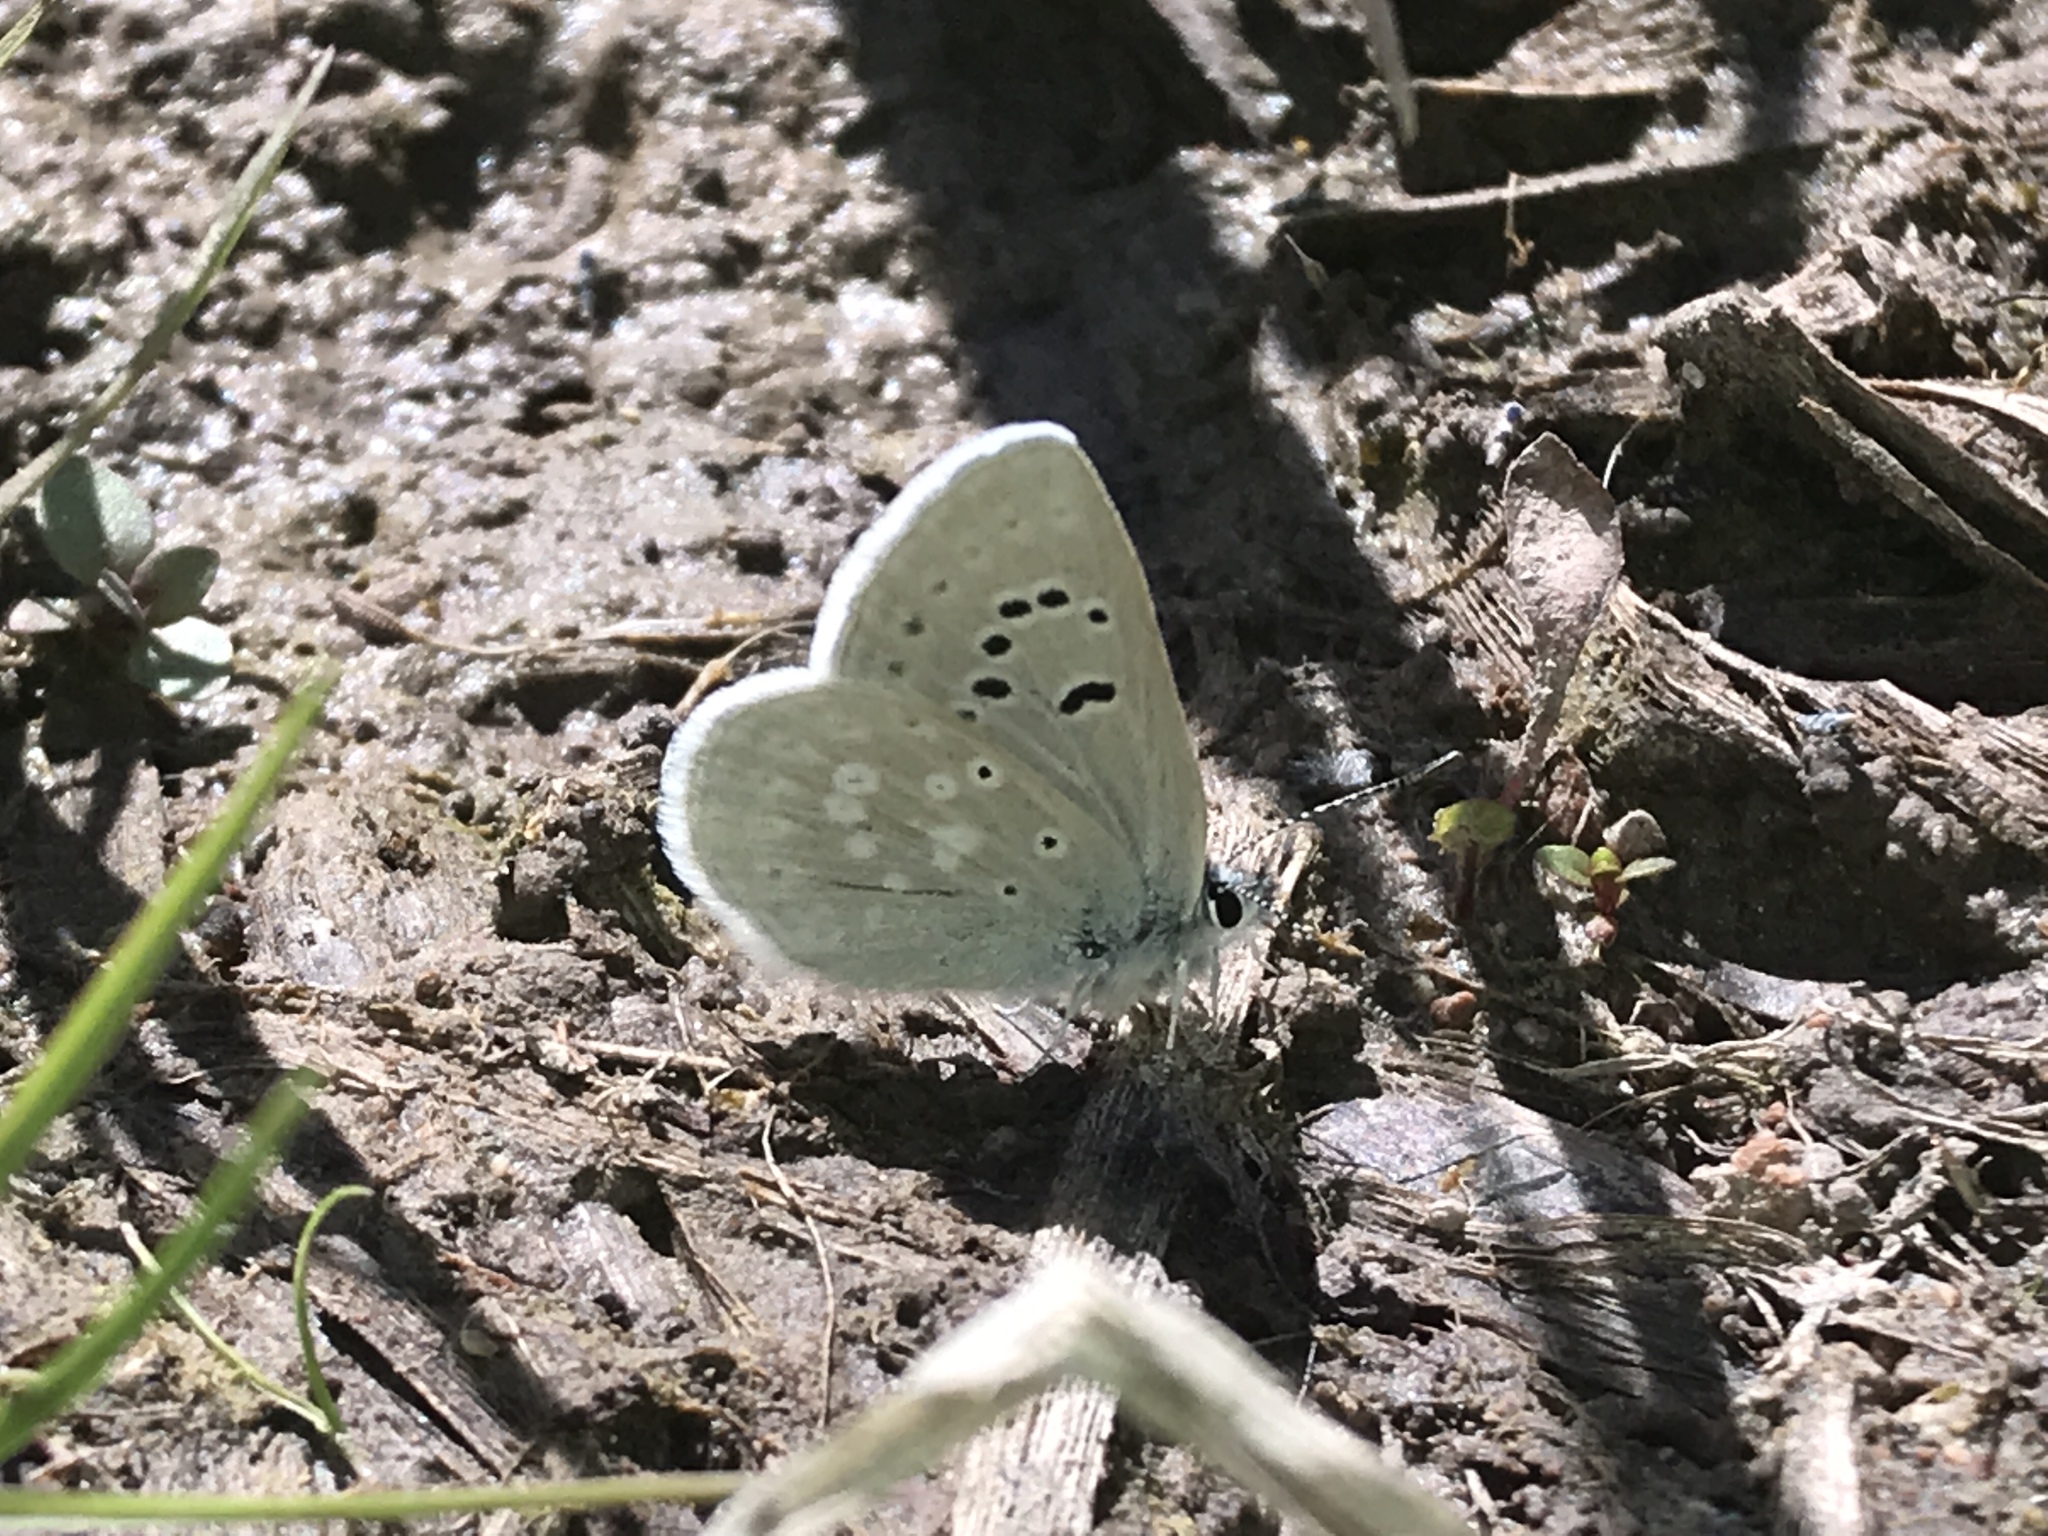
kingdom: Animalia
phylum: Arthropoda
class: Insecta
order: Lepidoptera
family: Lycaenidae
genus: Icaricia
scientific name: Icaricia icarioides
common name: Boisduval's blue
